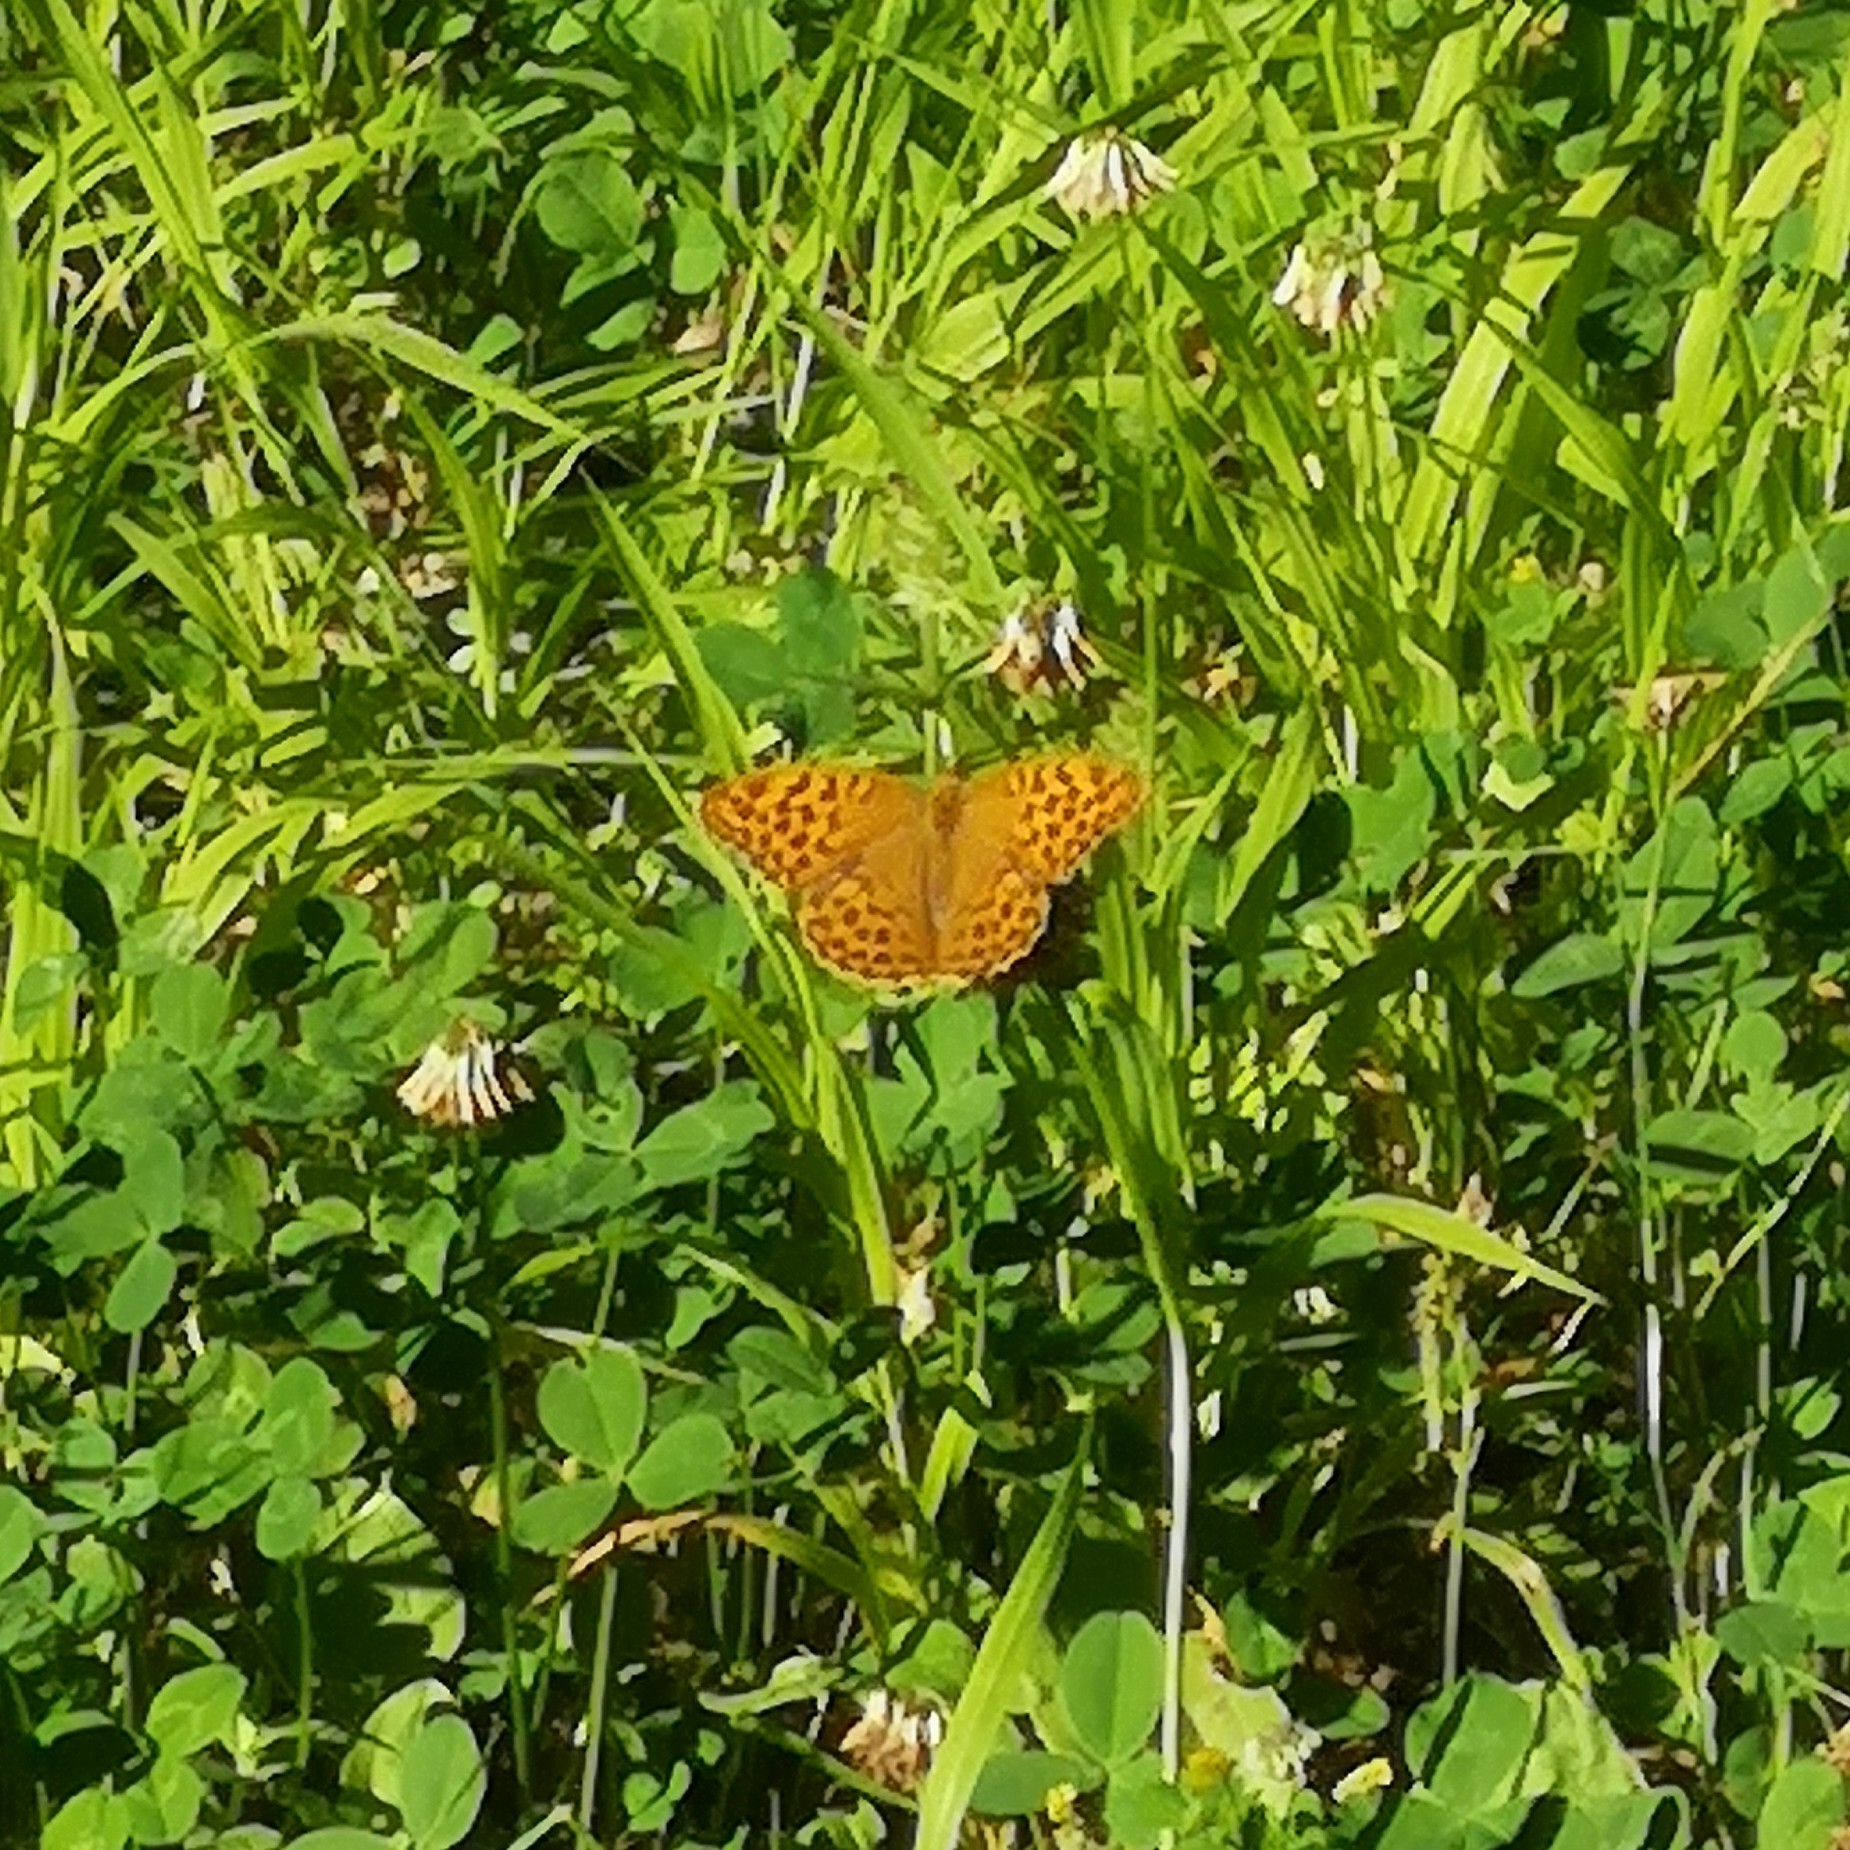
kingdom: Animalia
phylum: Arthropoda
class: Insecta
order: Lepidoptera
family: Nymphalidae
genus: Argynnis
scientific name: Argynnis paphia
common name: Silver-washed fritillary
